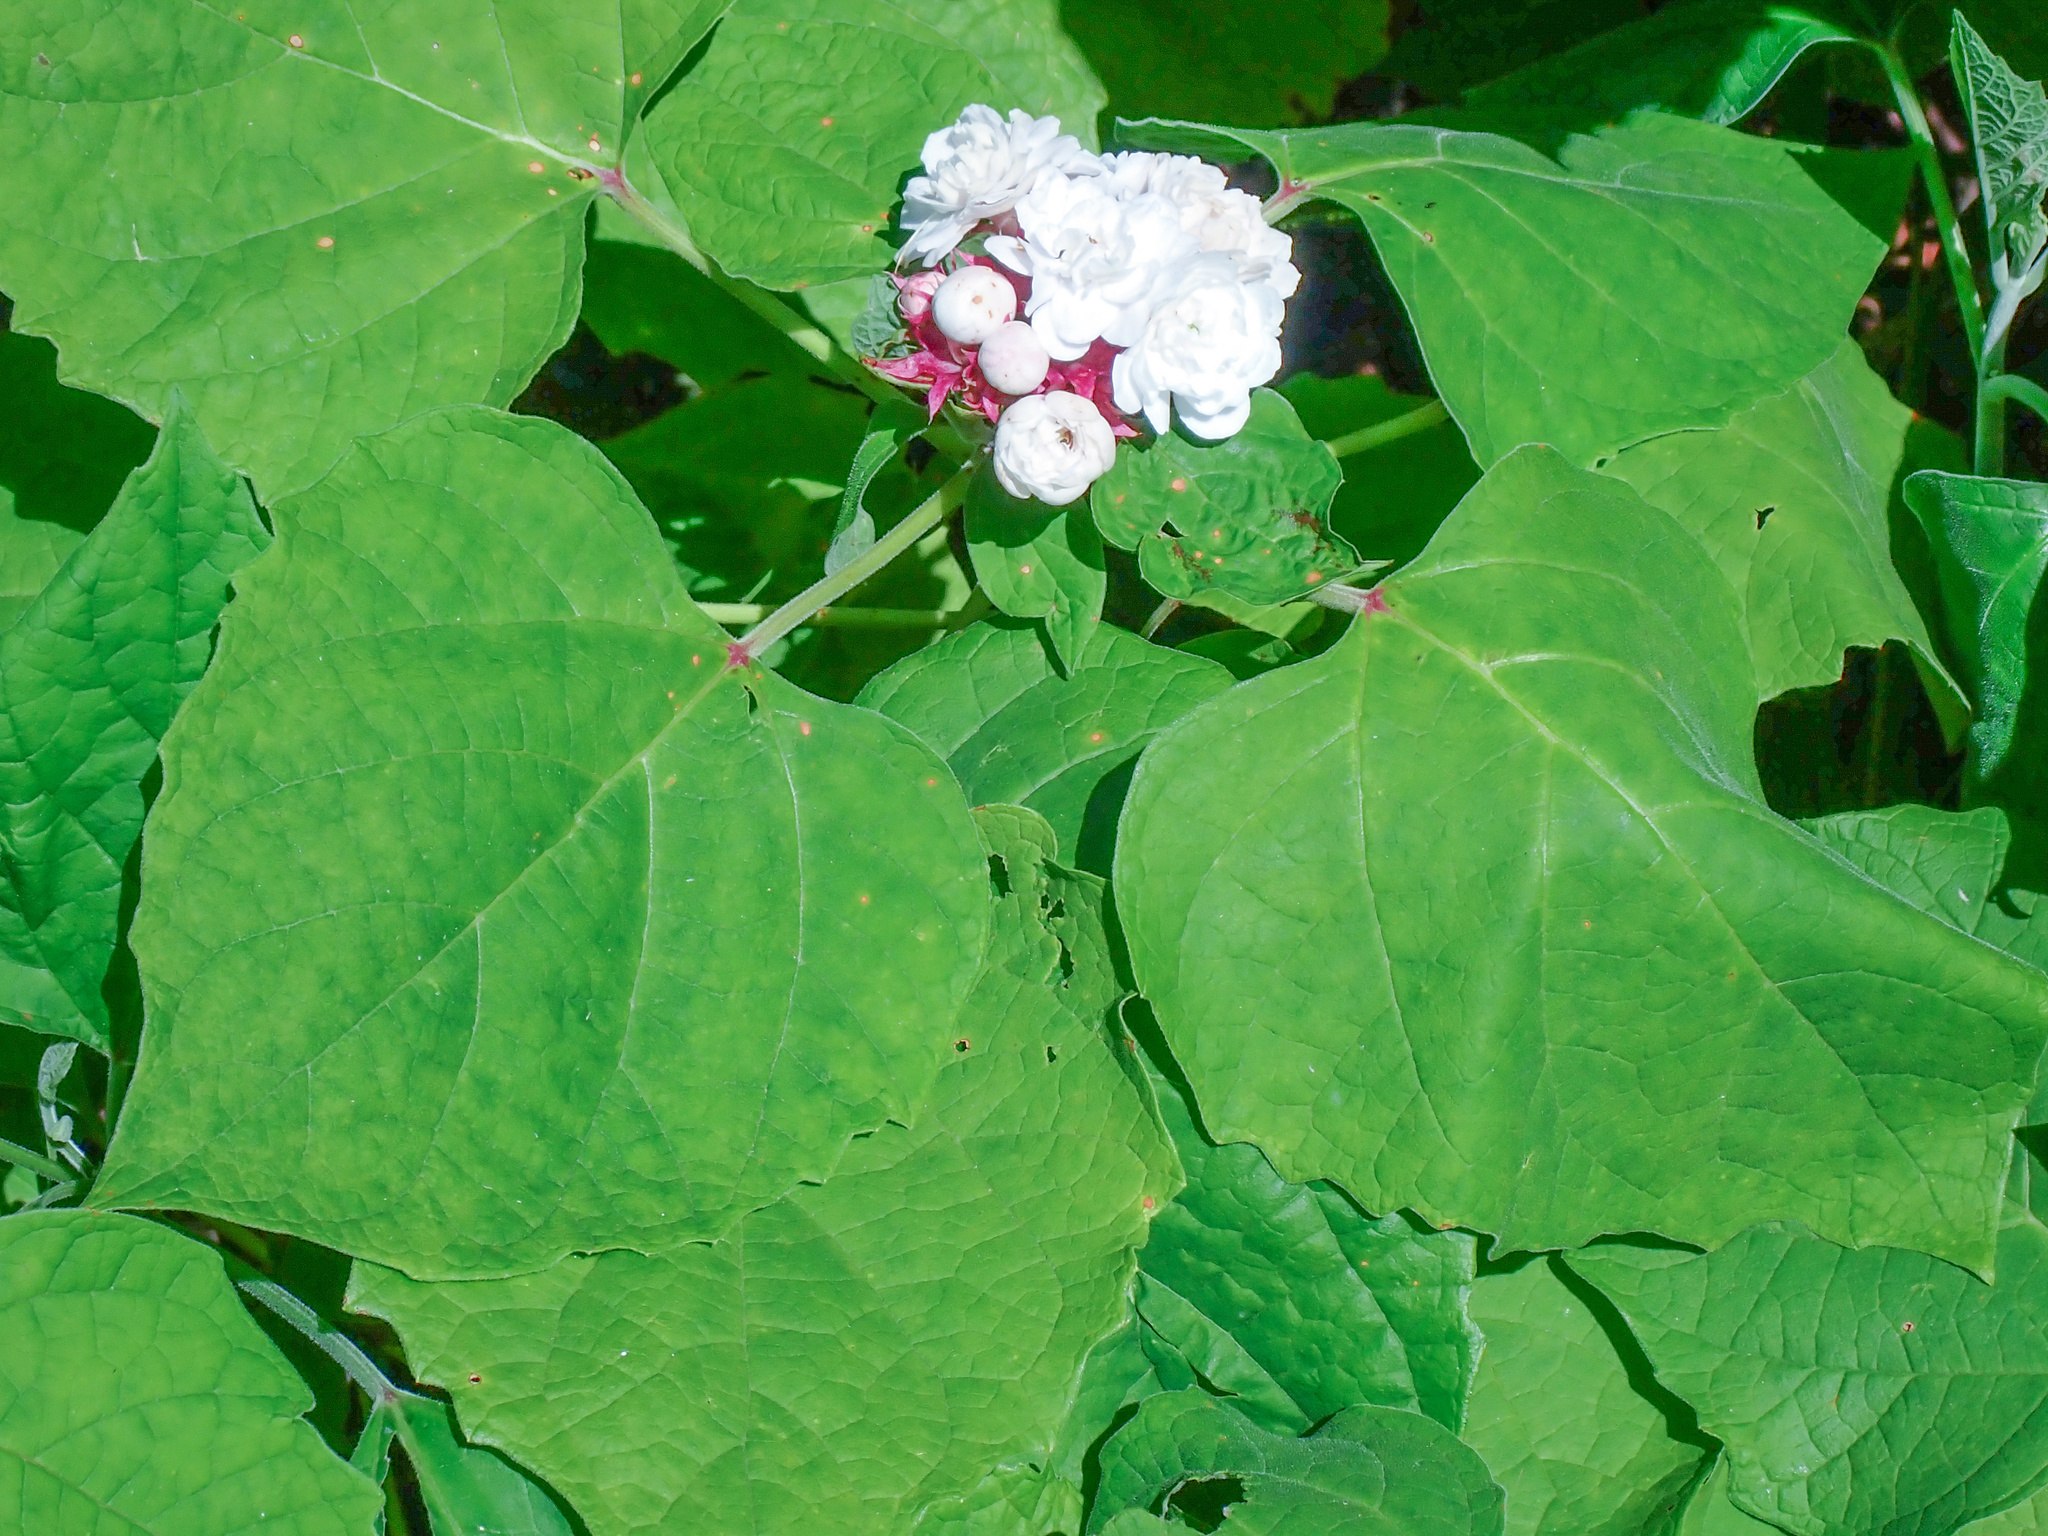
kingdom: Plantae
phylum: Tracheophyta
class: Magnoliopsida
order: Lamiales
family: Lamiaceae
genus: Clerodendrum
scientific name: Clerodendrum chinense
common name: Stickbush
